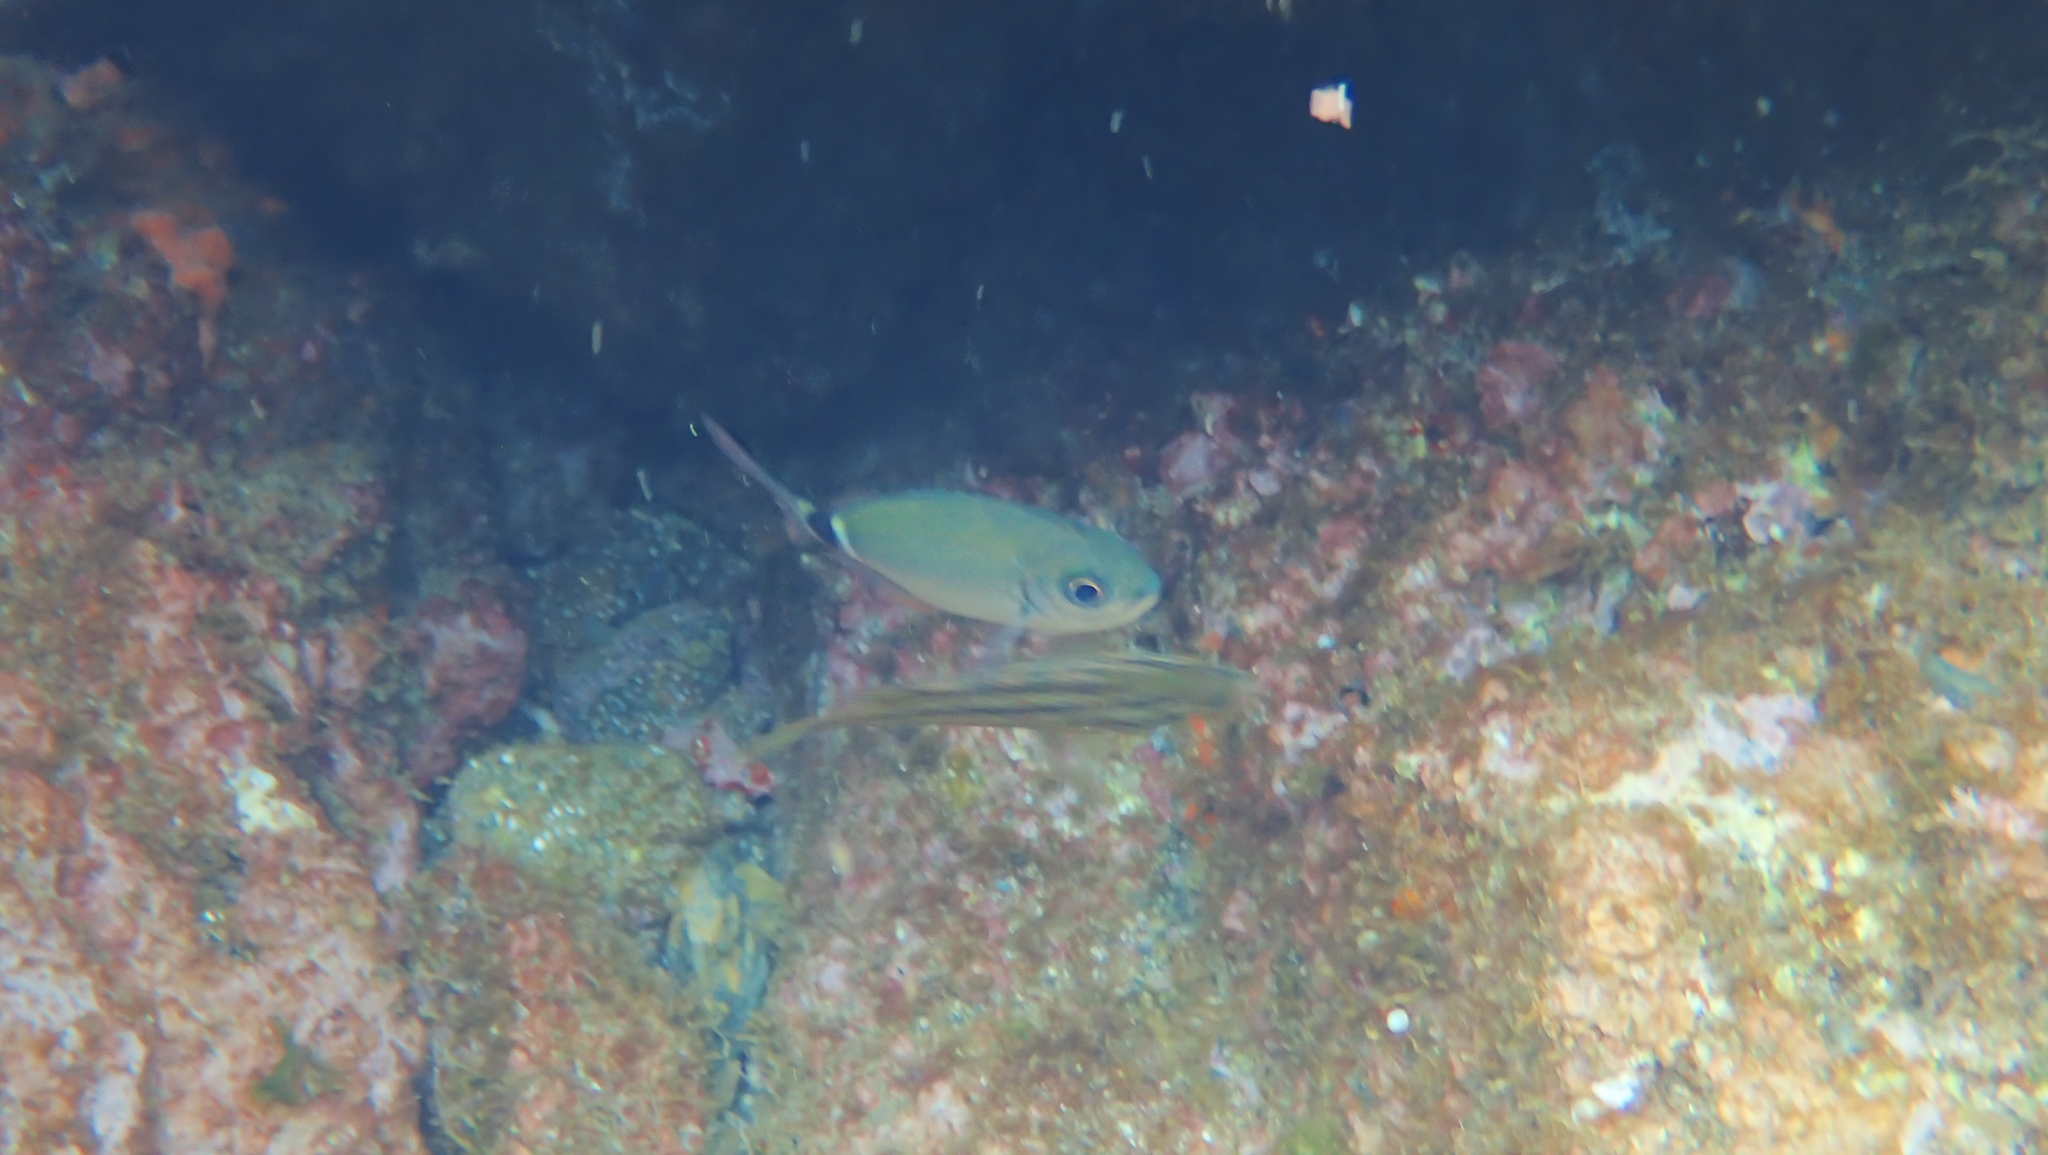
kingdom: Animalia
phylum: Chordata
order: Perciformes
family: Sparidae
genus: Oblada
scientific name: Oblada melanura
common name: Saddled seabream
